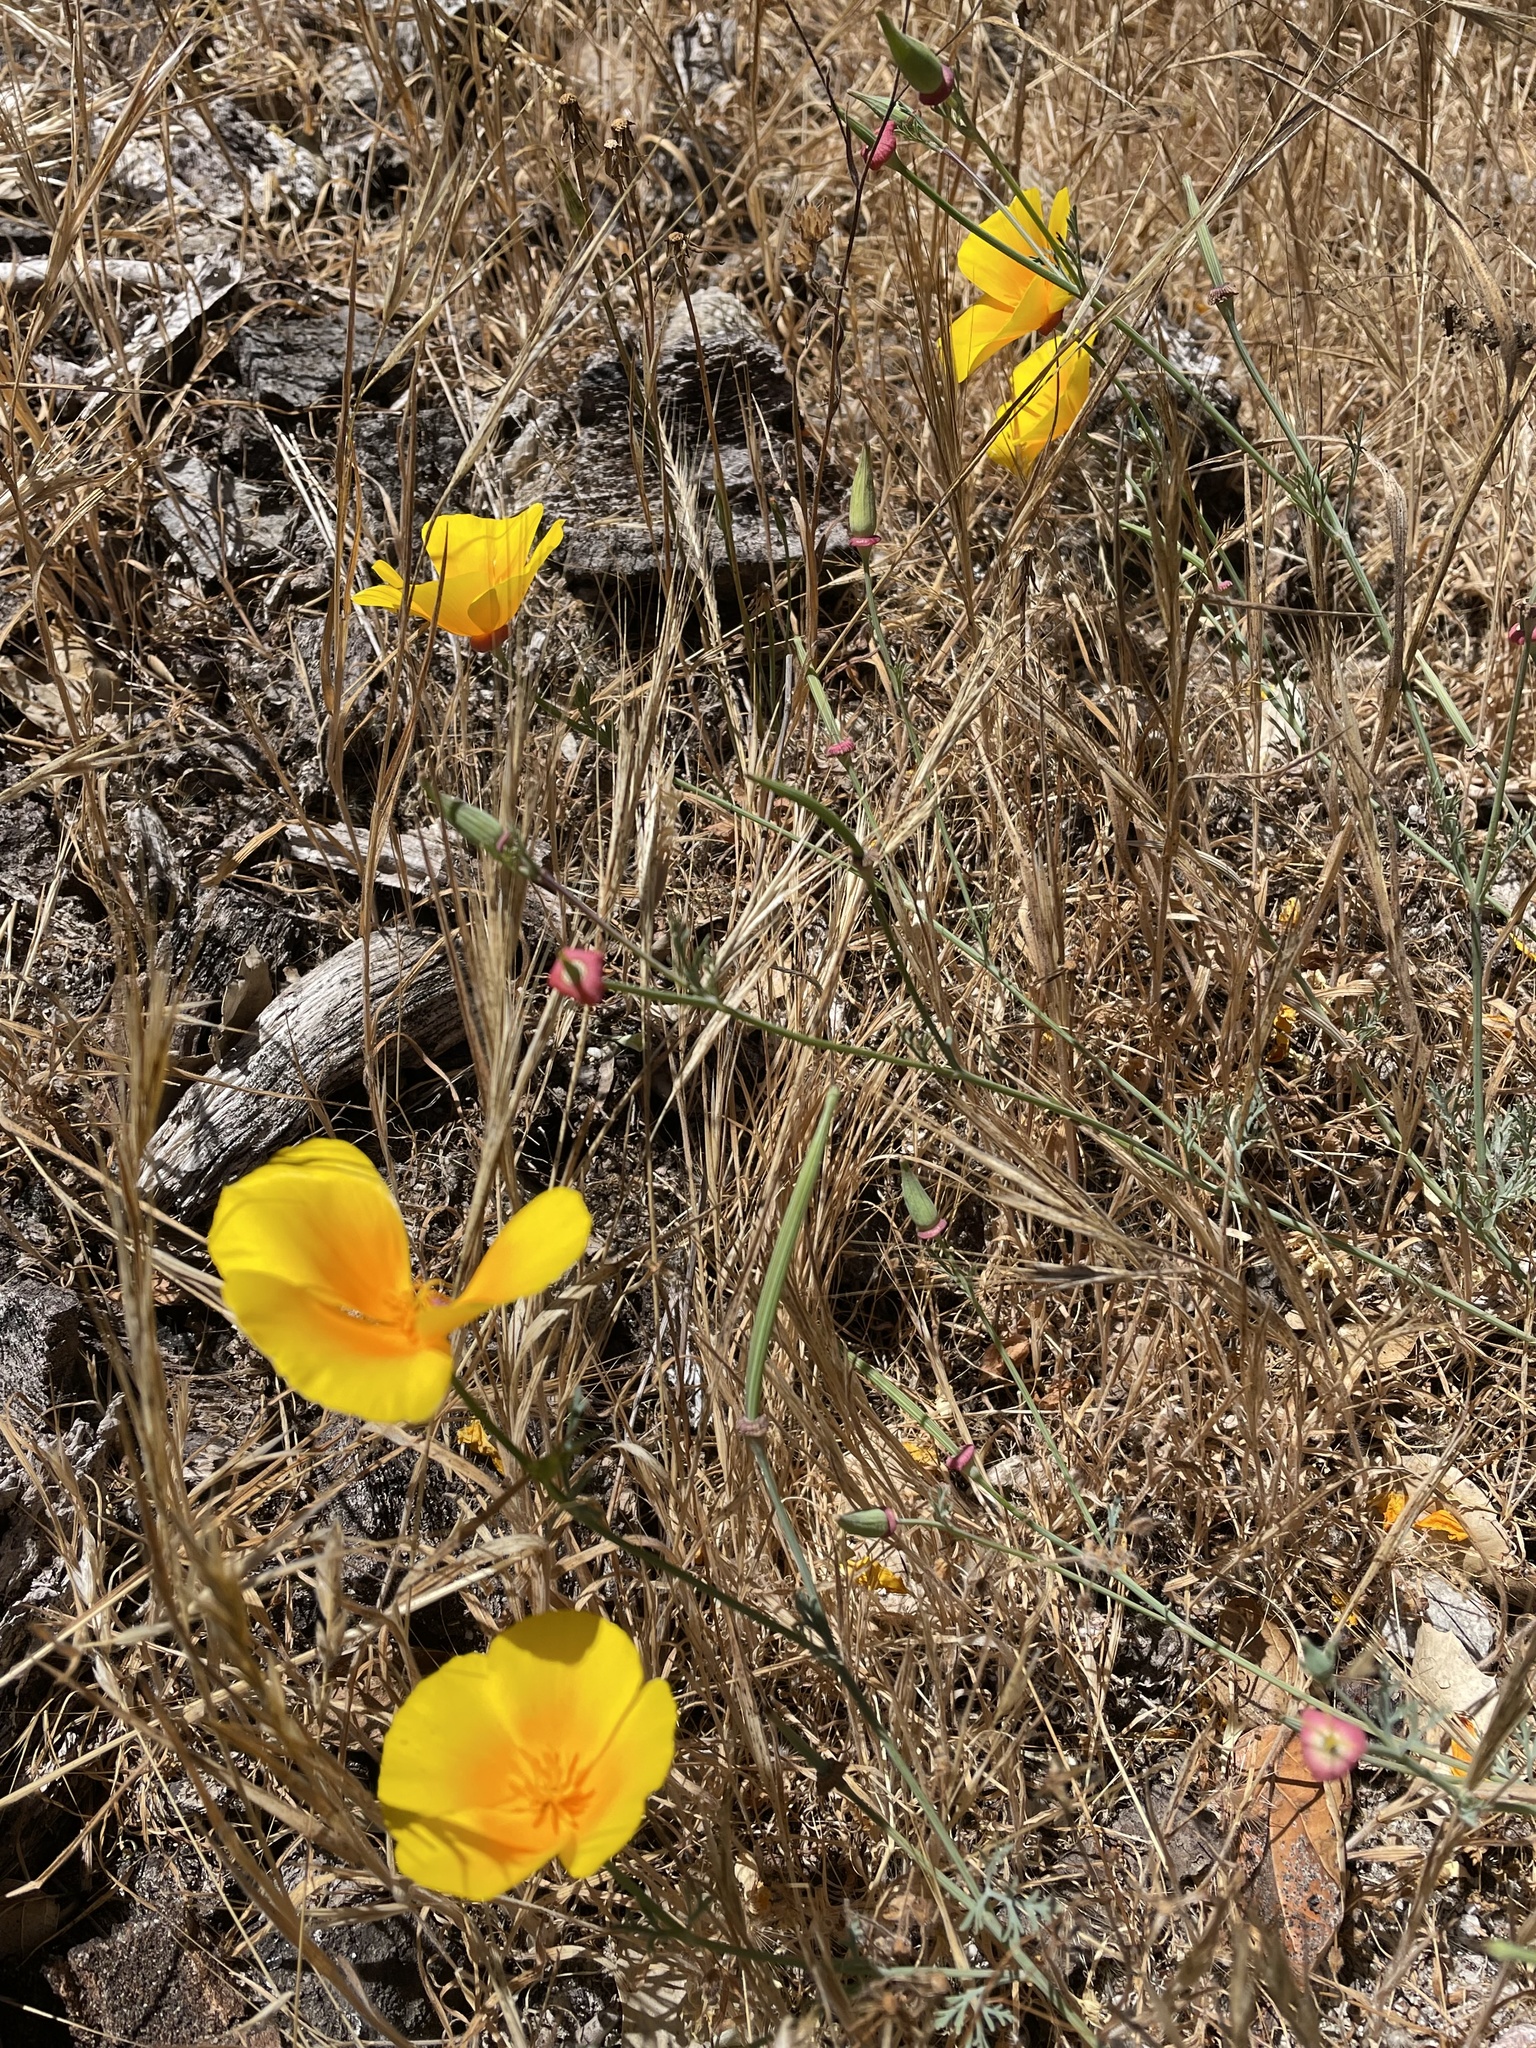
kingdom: Plantae
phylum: Tracheophyta
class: Magnoliopsida
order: Ranunculales
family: Papaveraceae
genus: Eschscholzia
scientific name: Eschscholzia californica
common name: California poppy
